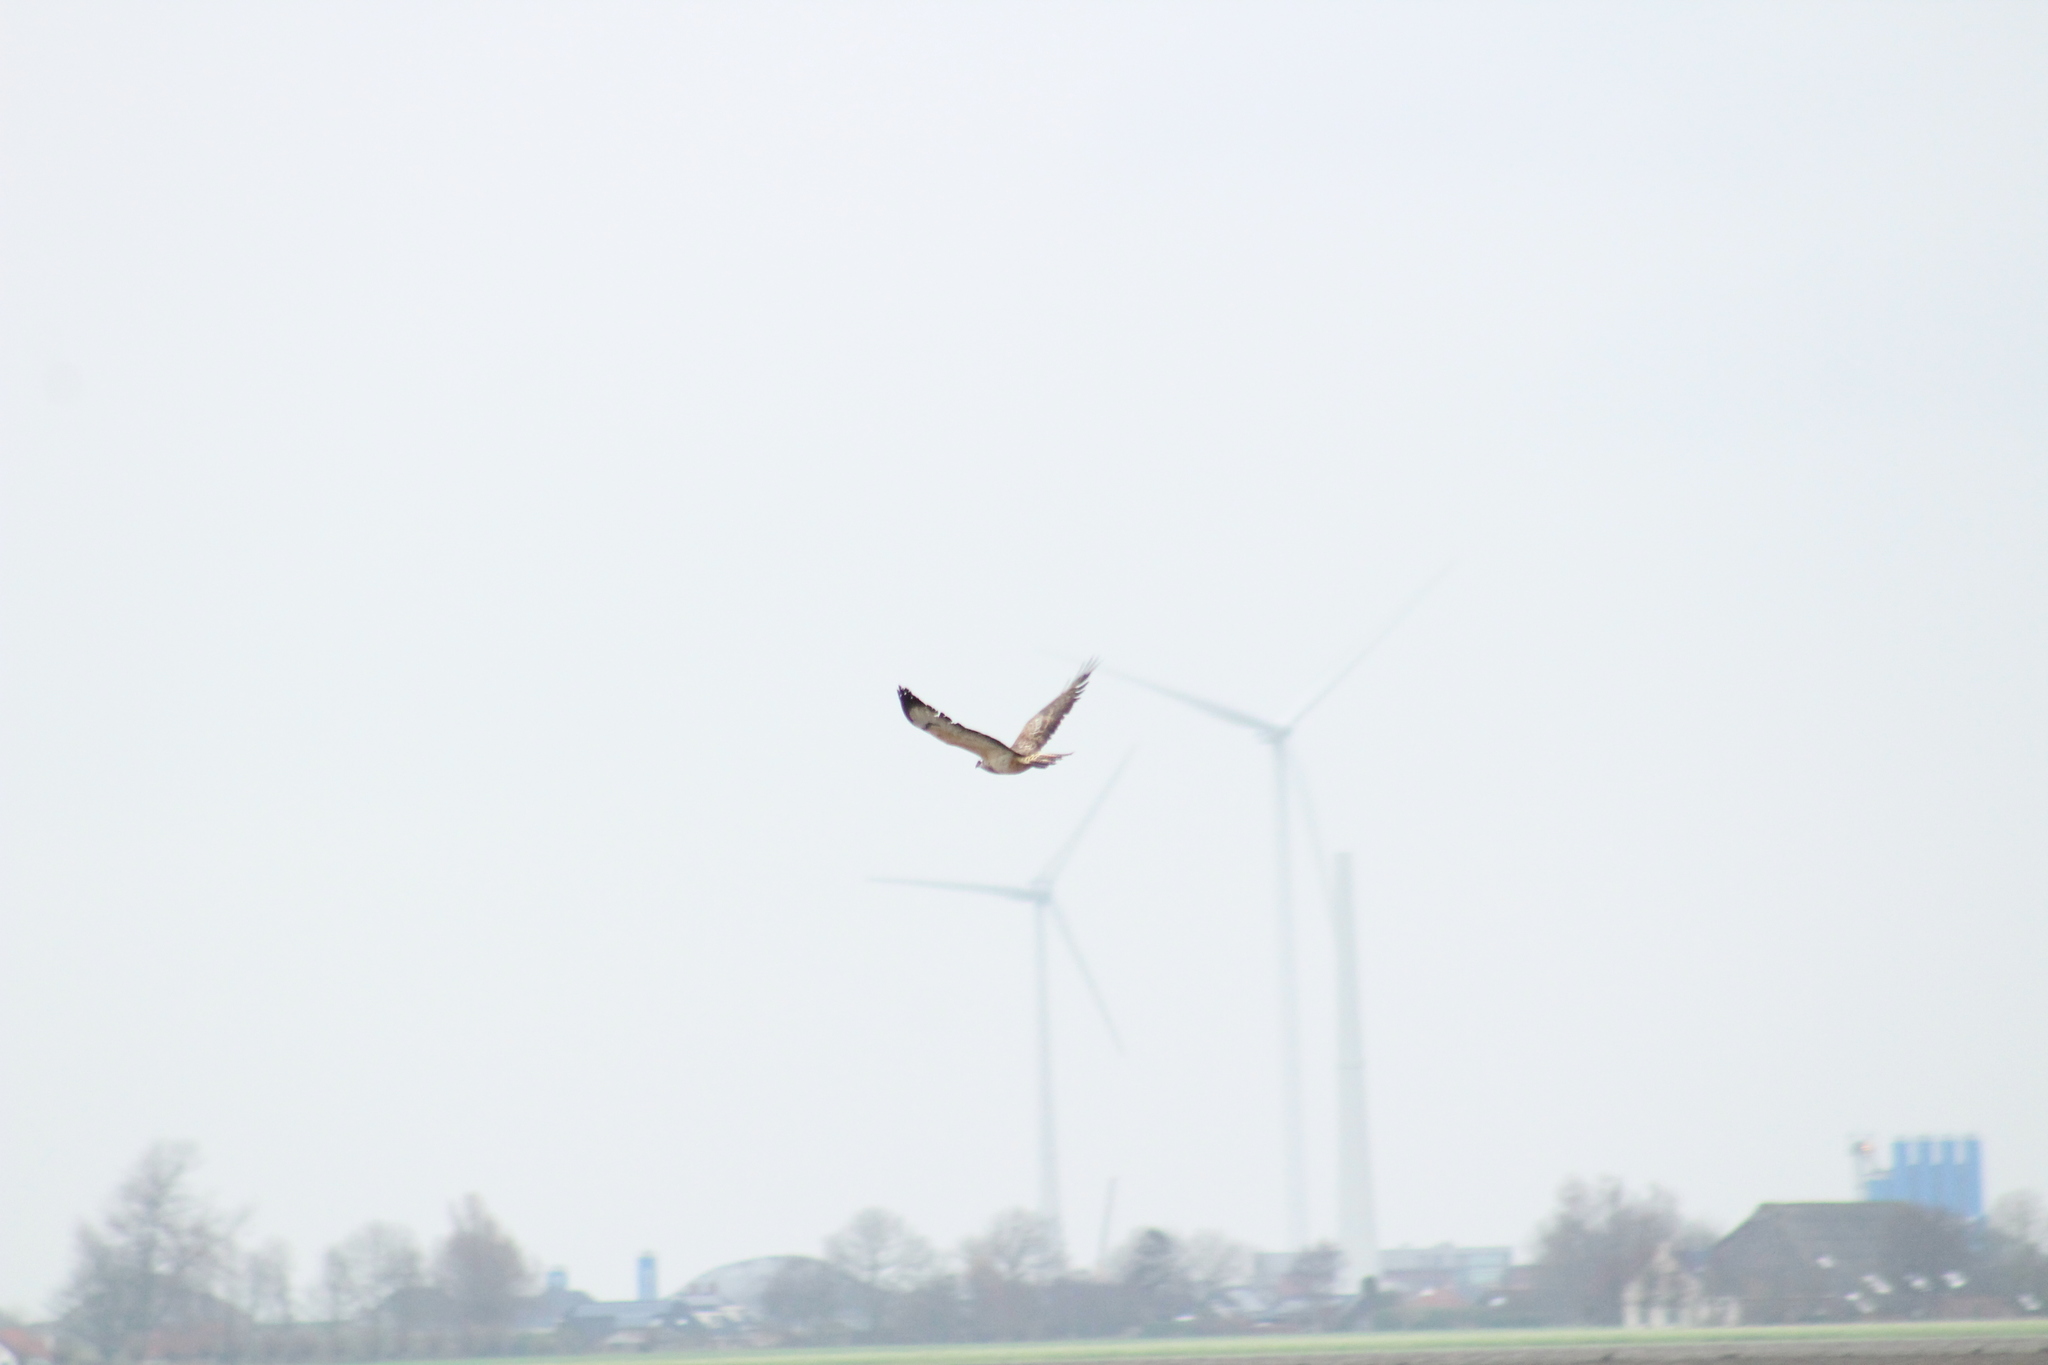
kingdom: Animalia
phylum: Chordata
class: Aves
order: Accipitriformes
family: Accipitridae
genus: Buteo
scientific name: Buteo buteo
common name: Common buzzard
